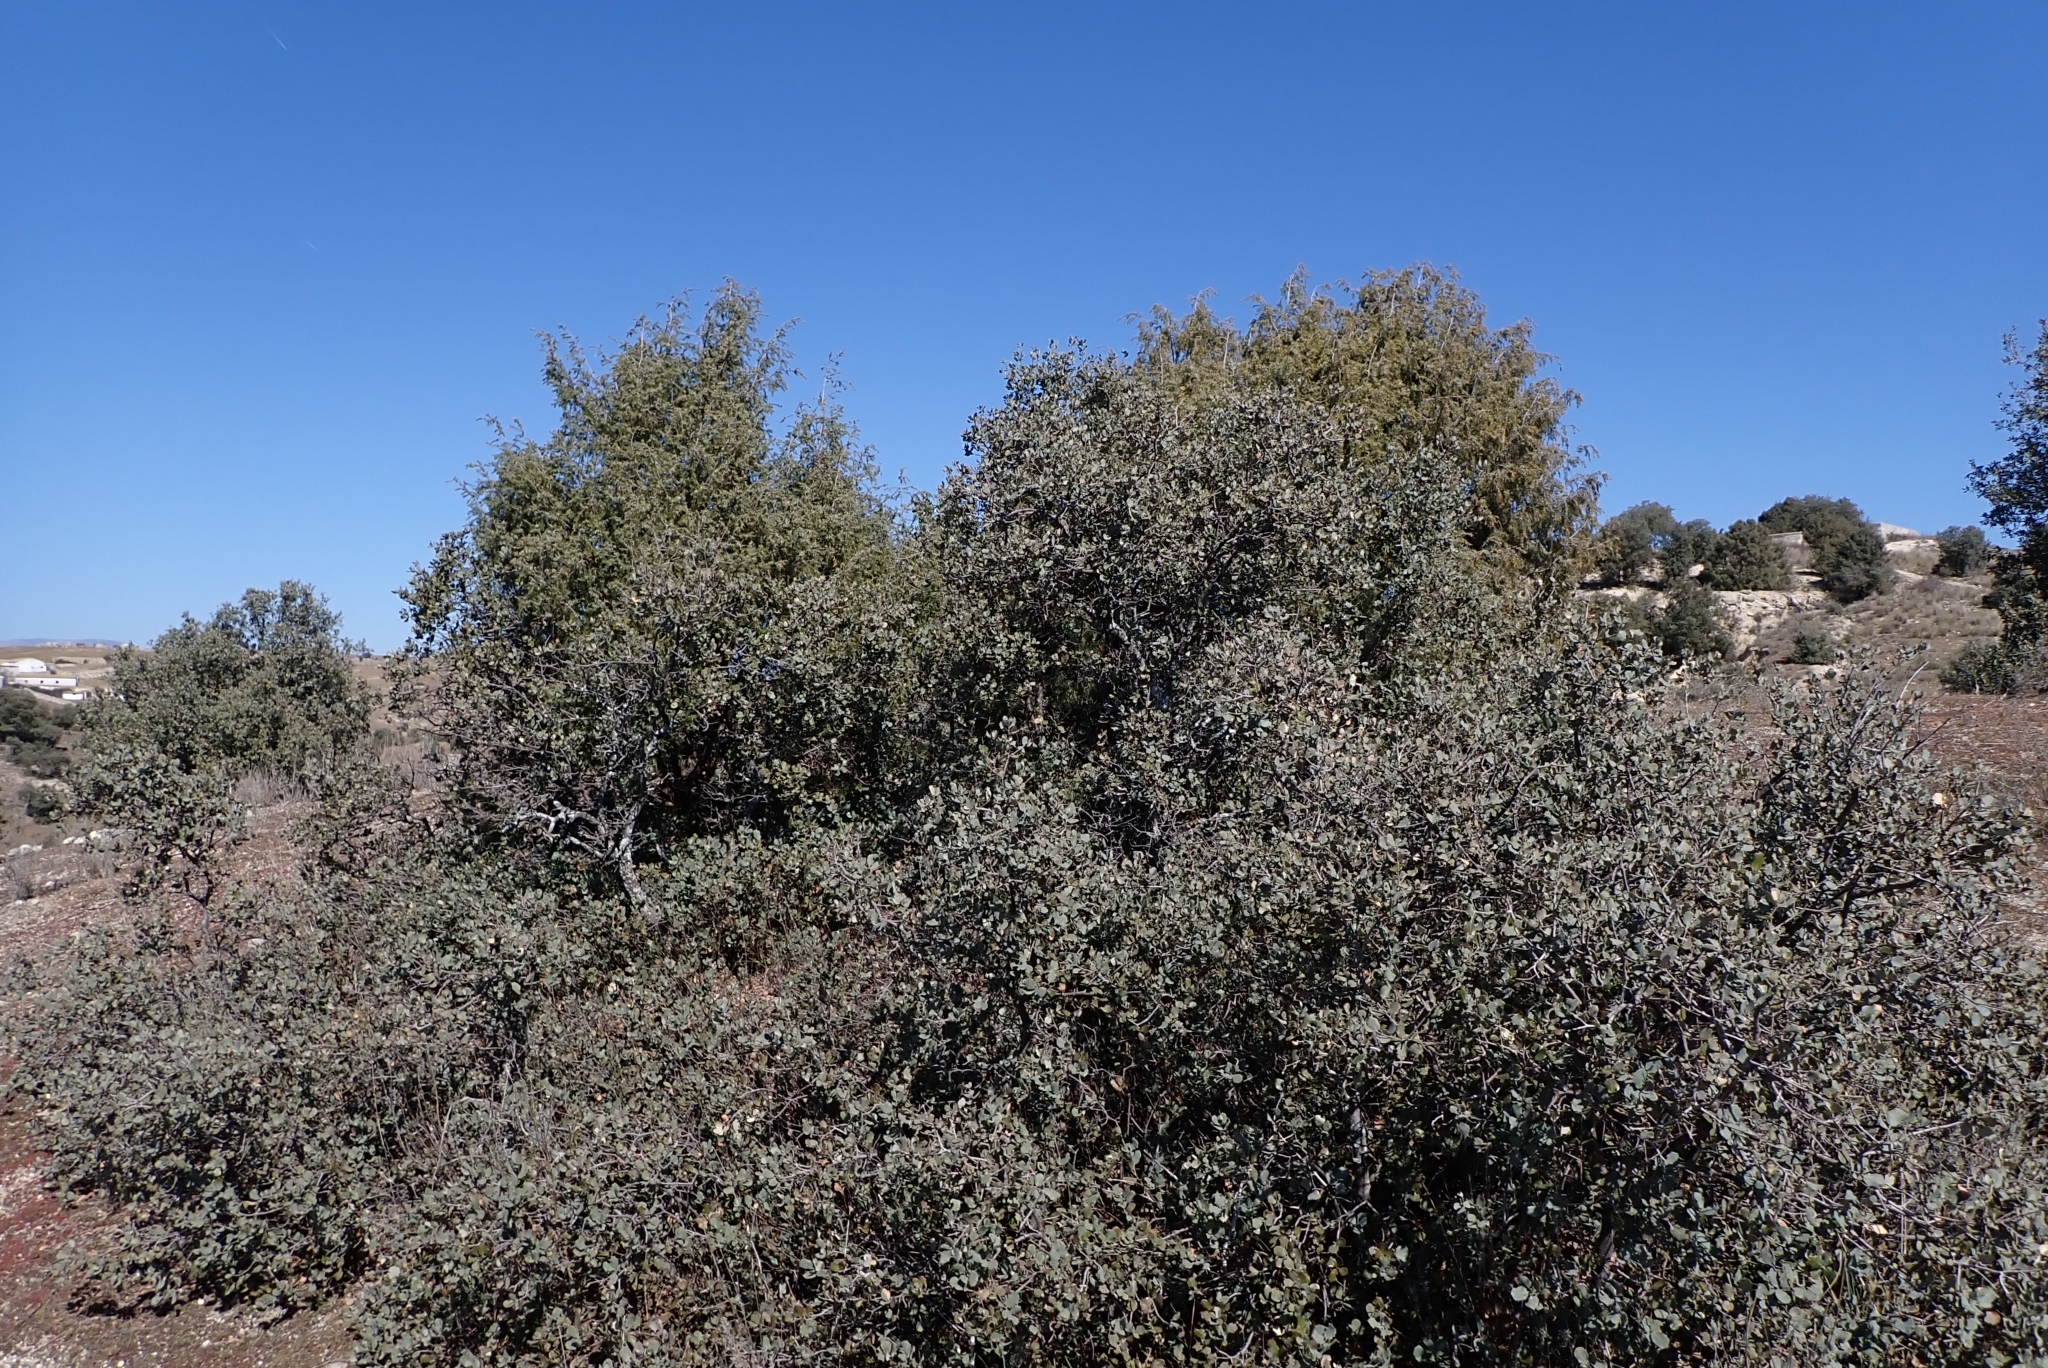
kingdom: Plantae
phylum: Tracheophyta
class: Magnoliopsida
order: Fagales
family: Fagaceae
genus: Quercus
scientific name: Quercus rotundifolia
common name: Holm oak
